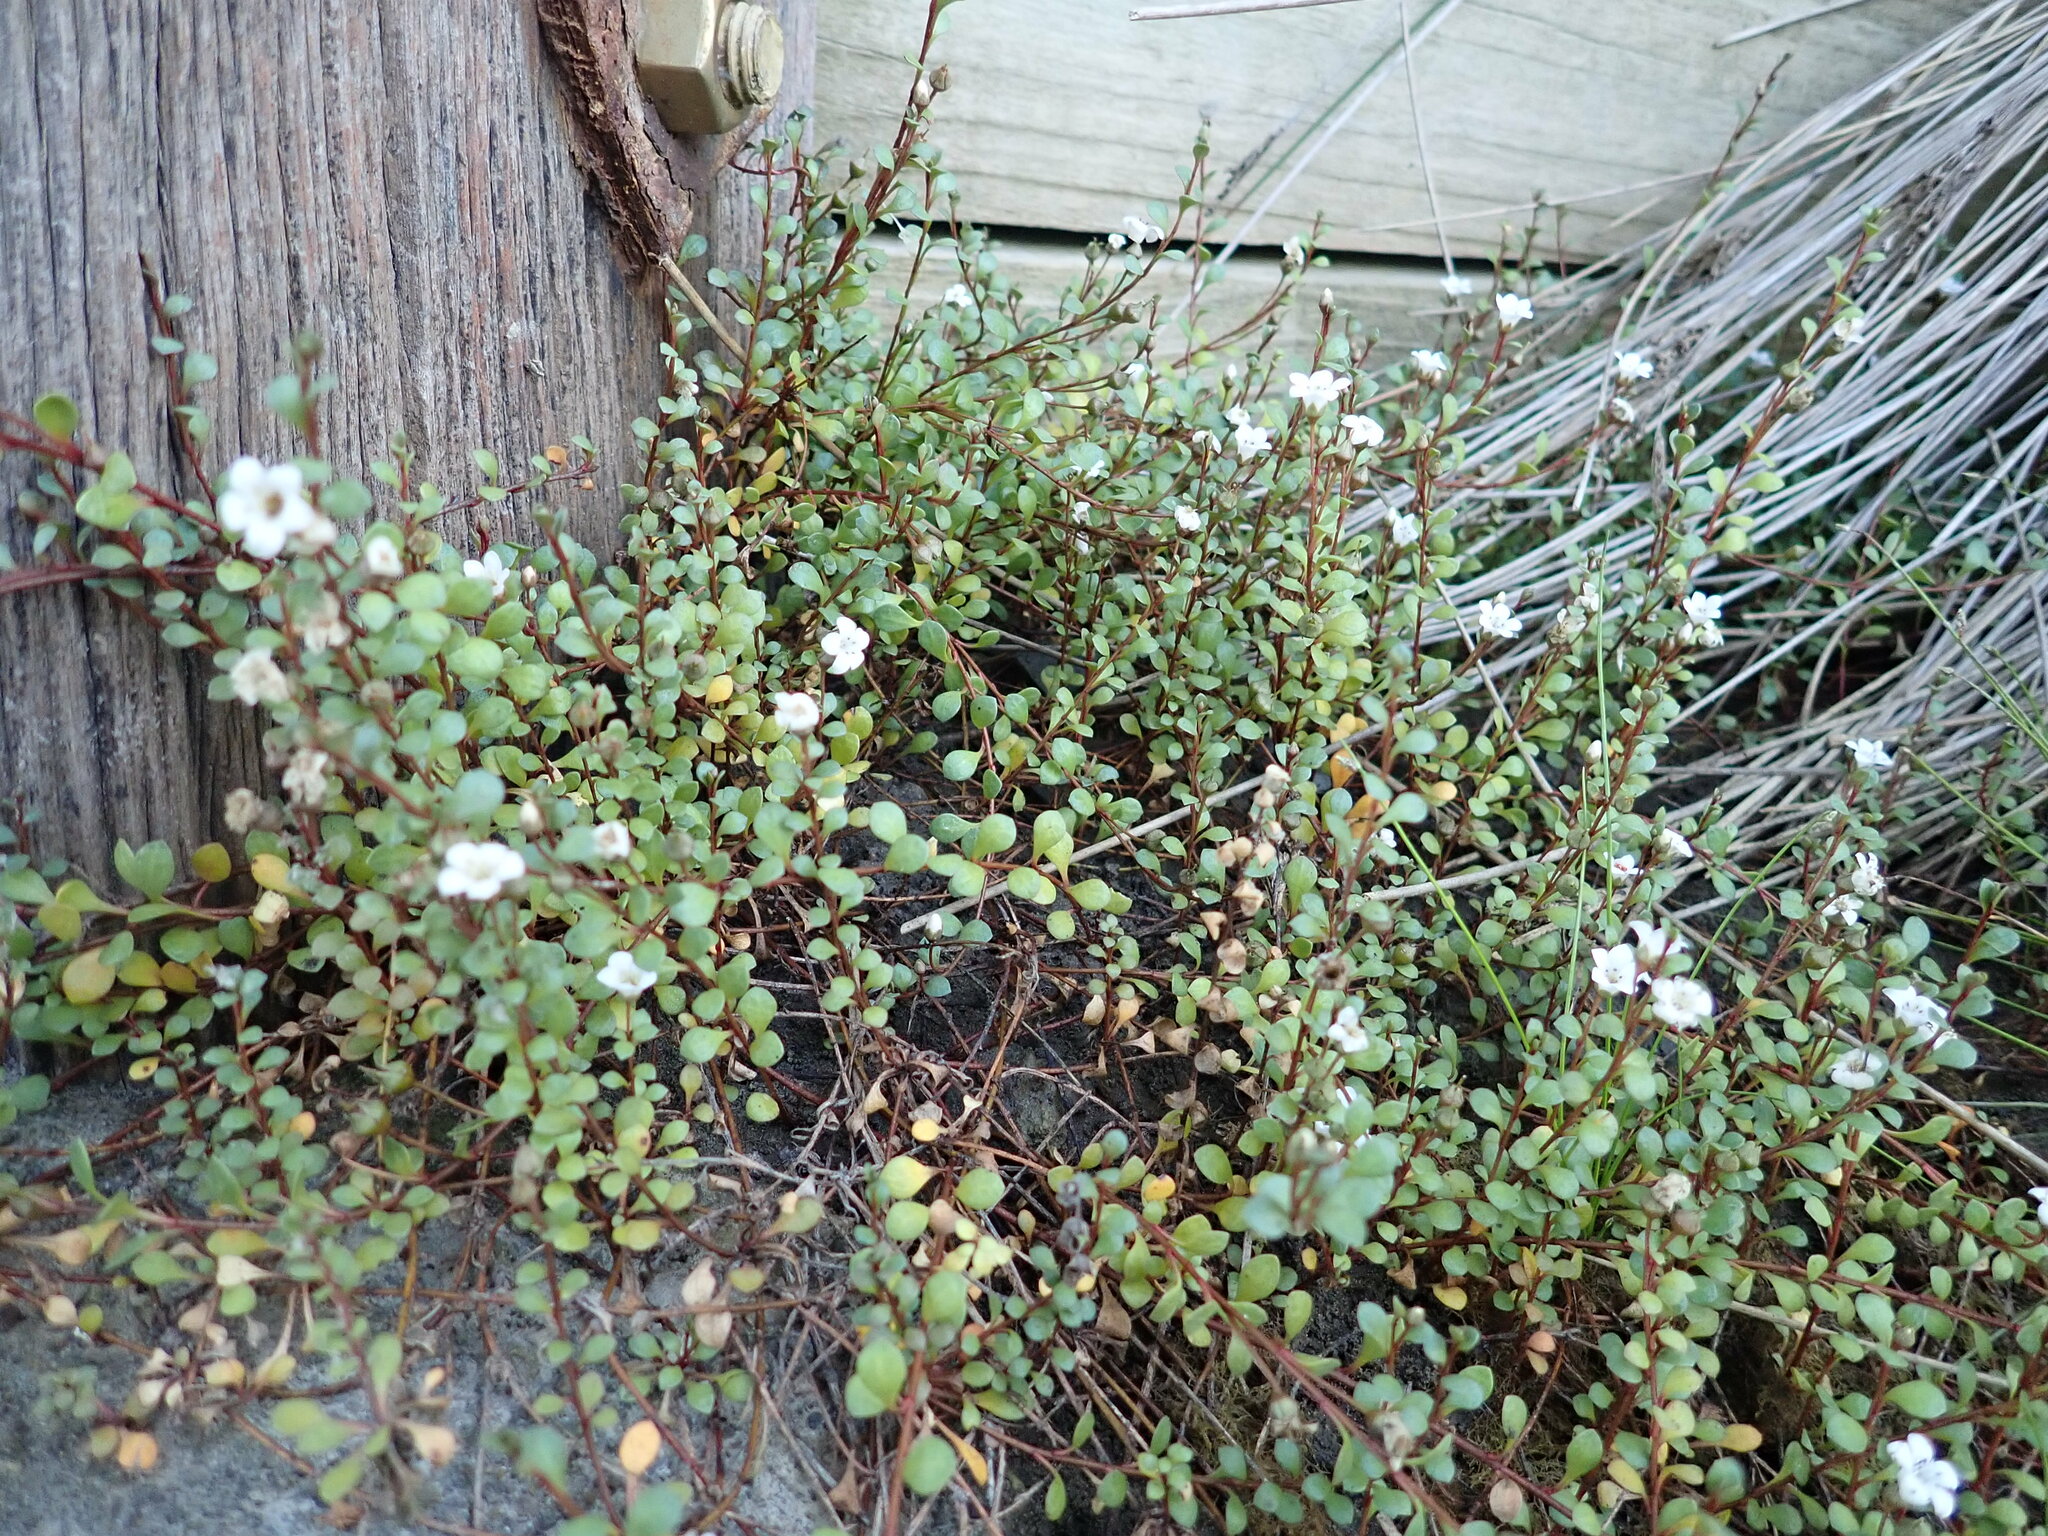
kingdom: Plantae
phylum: Tracheophyta
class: Magnoliopsida
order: Ericales
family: Primulaceae
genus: Samolus
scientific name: Samolus repens
